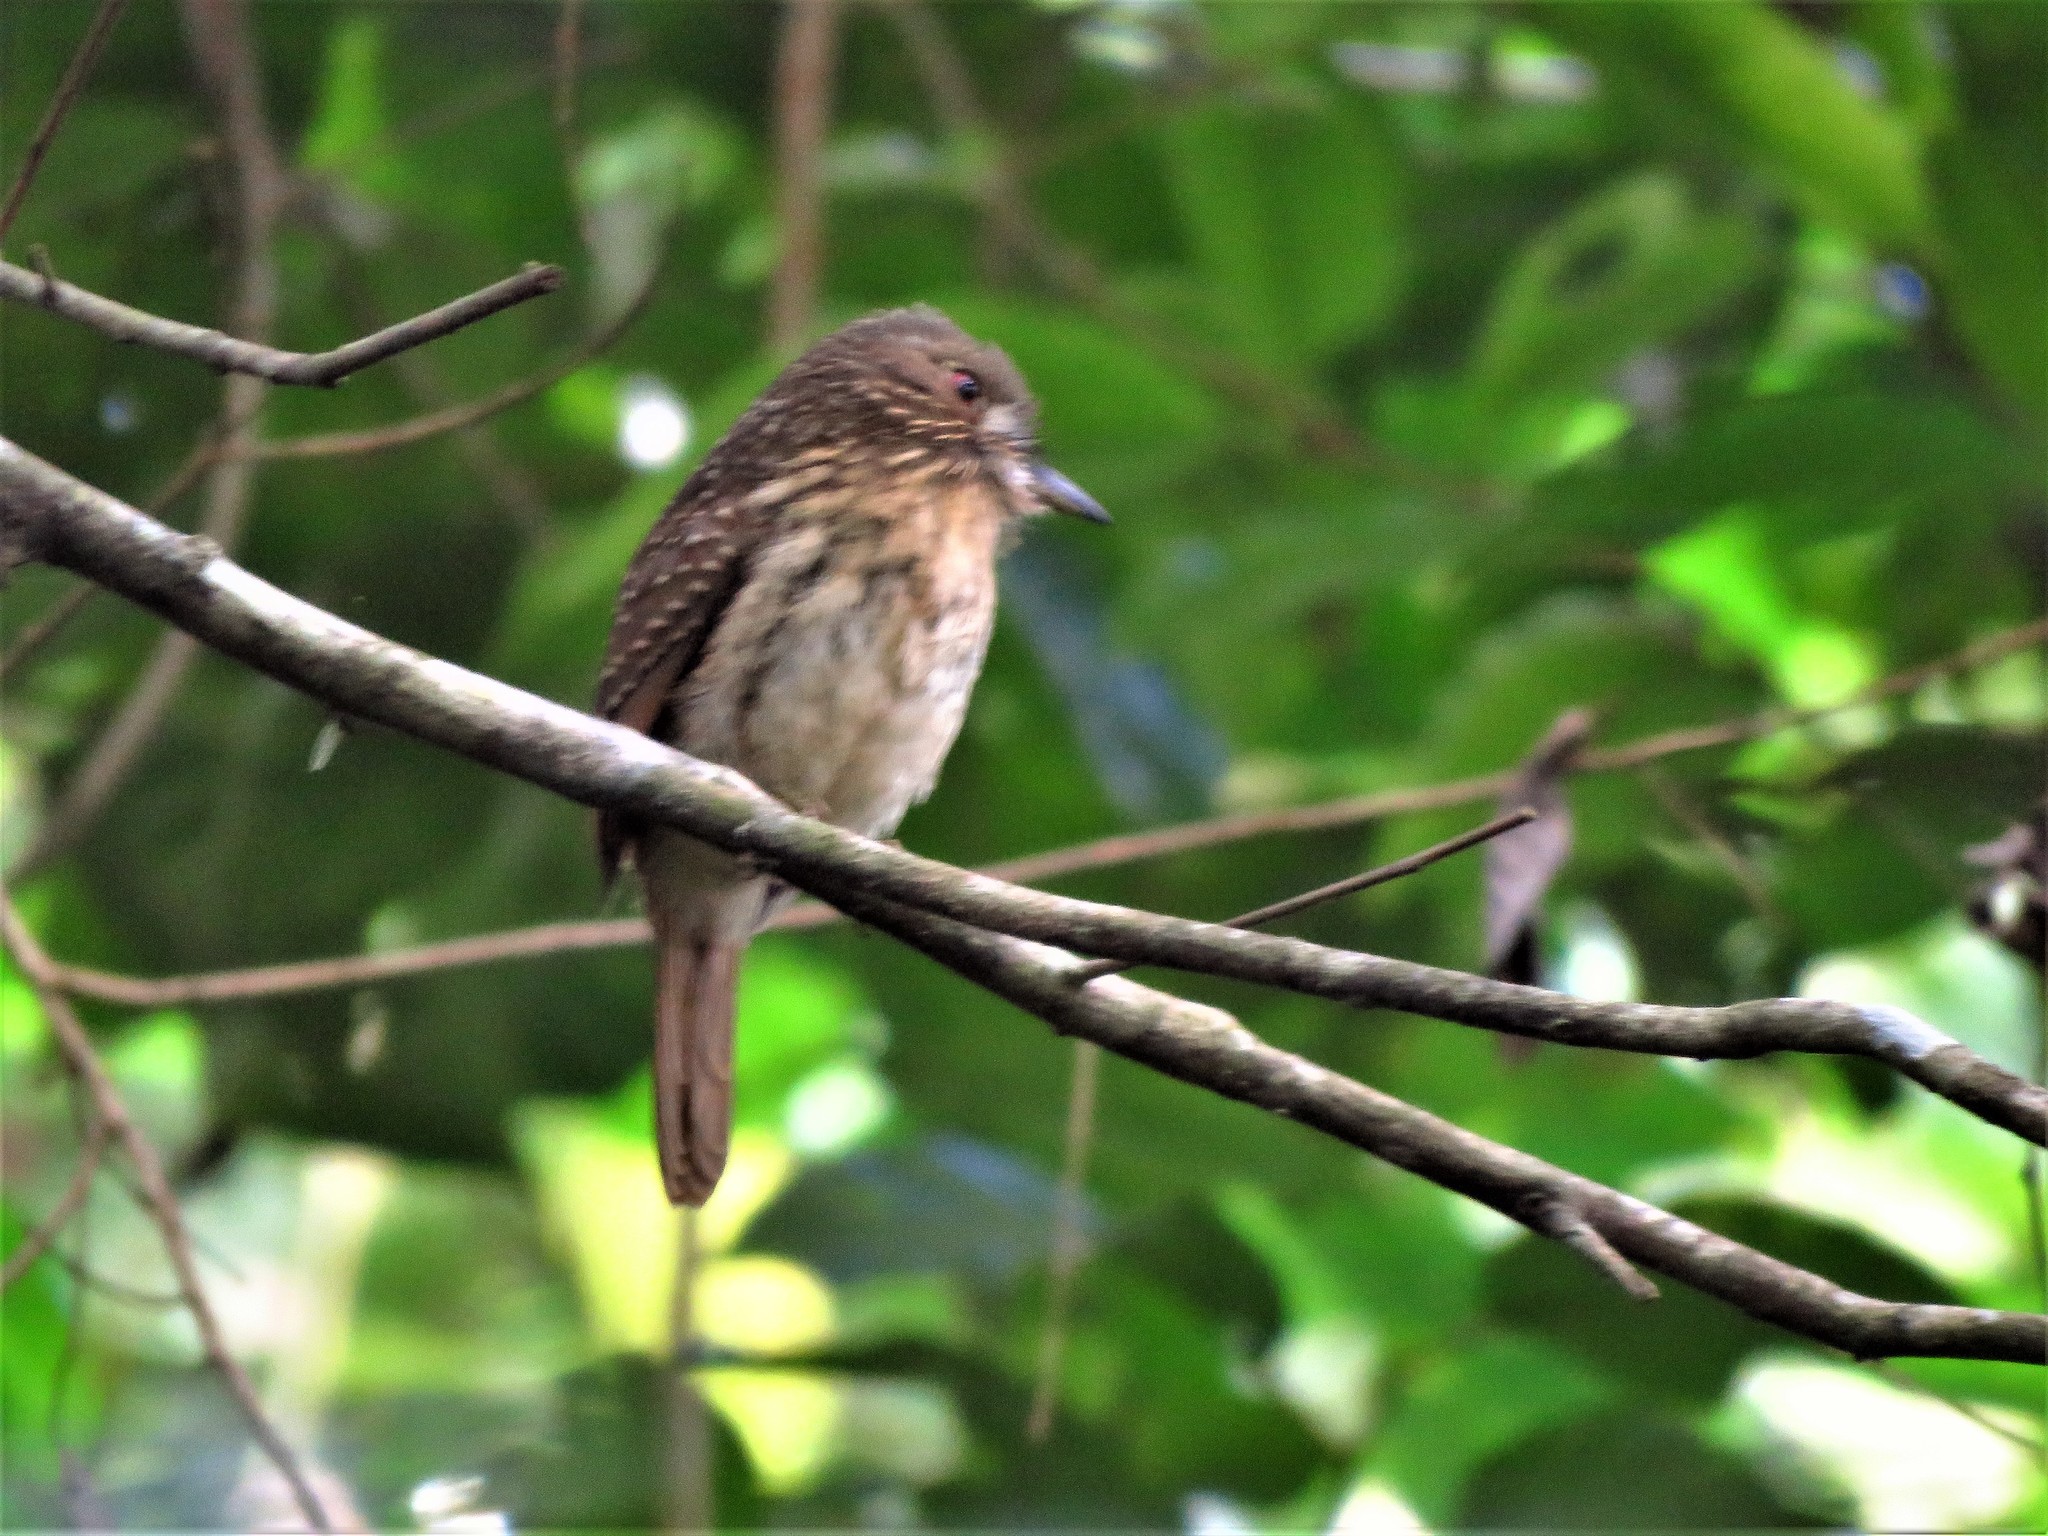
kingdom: Animalia
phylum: Chordata
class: Aves
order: Piciformes
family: Bucconidae
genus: Malacoptila
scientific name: Malacoptila panamensis
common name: White-whiskered puffbird
